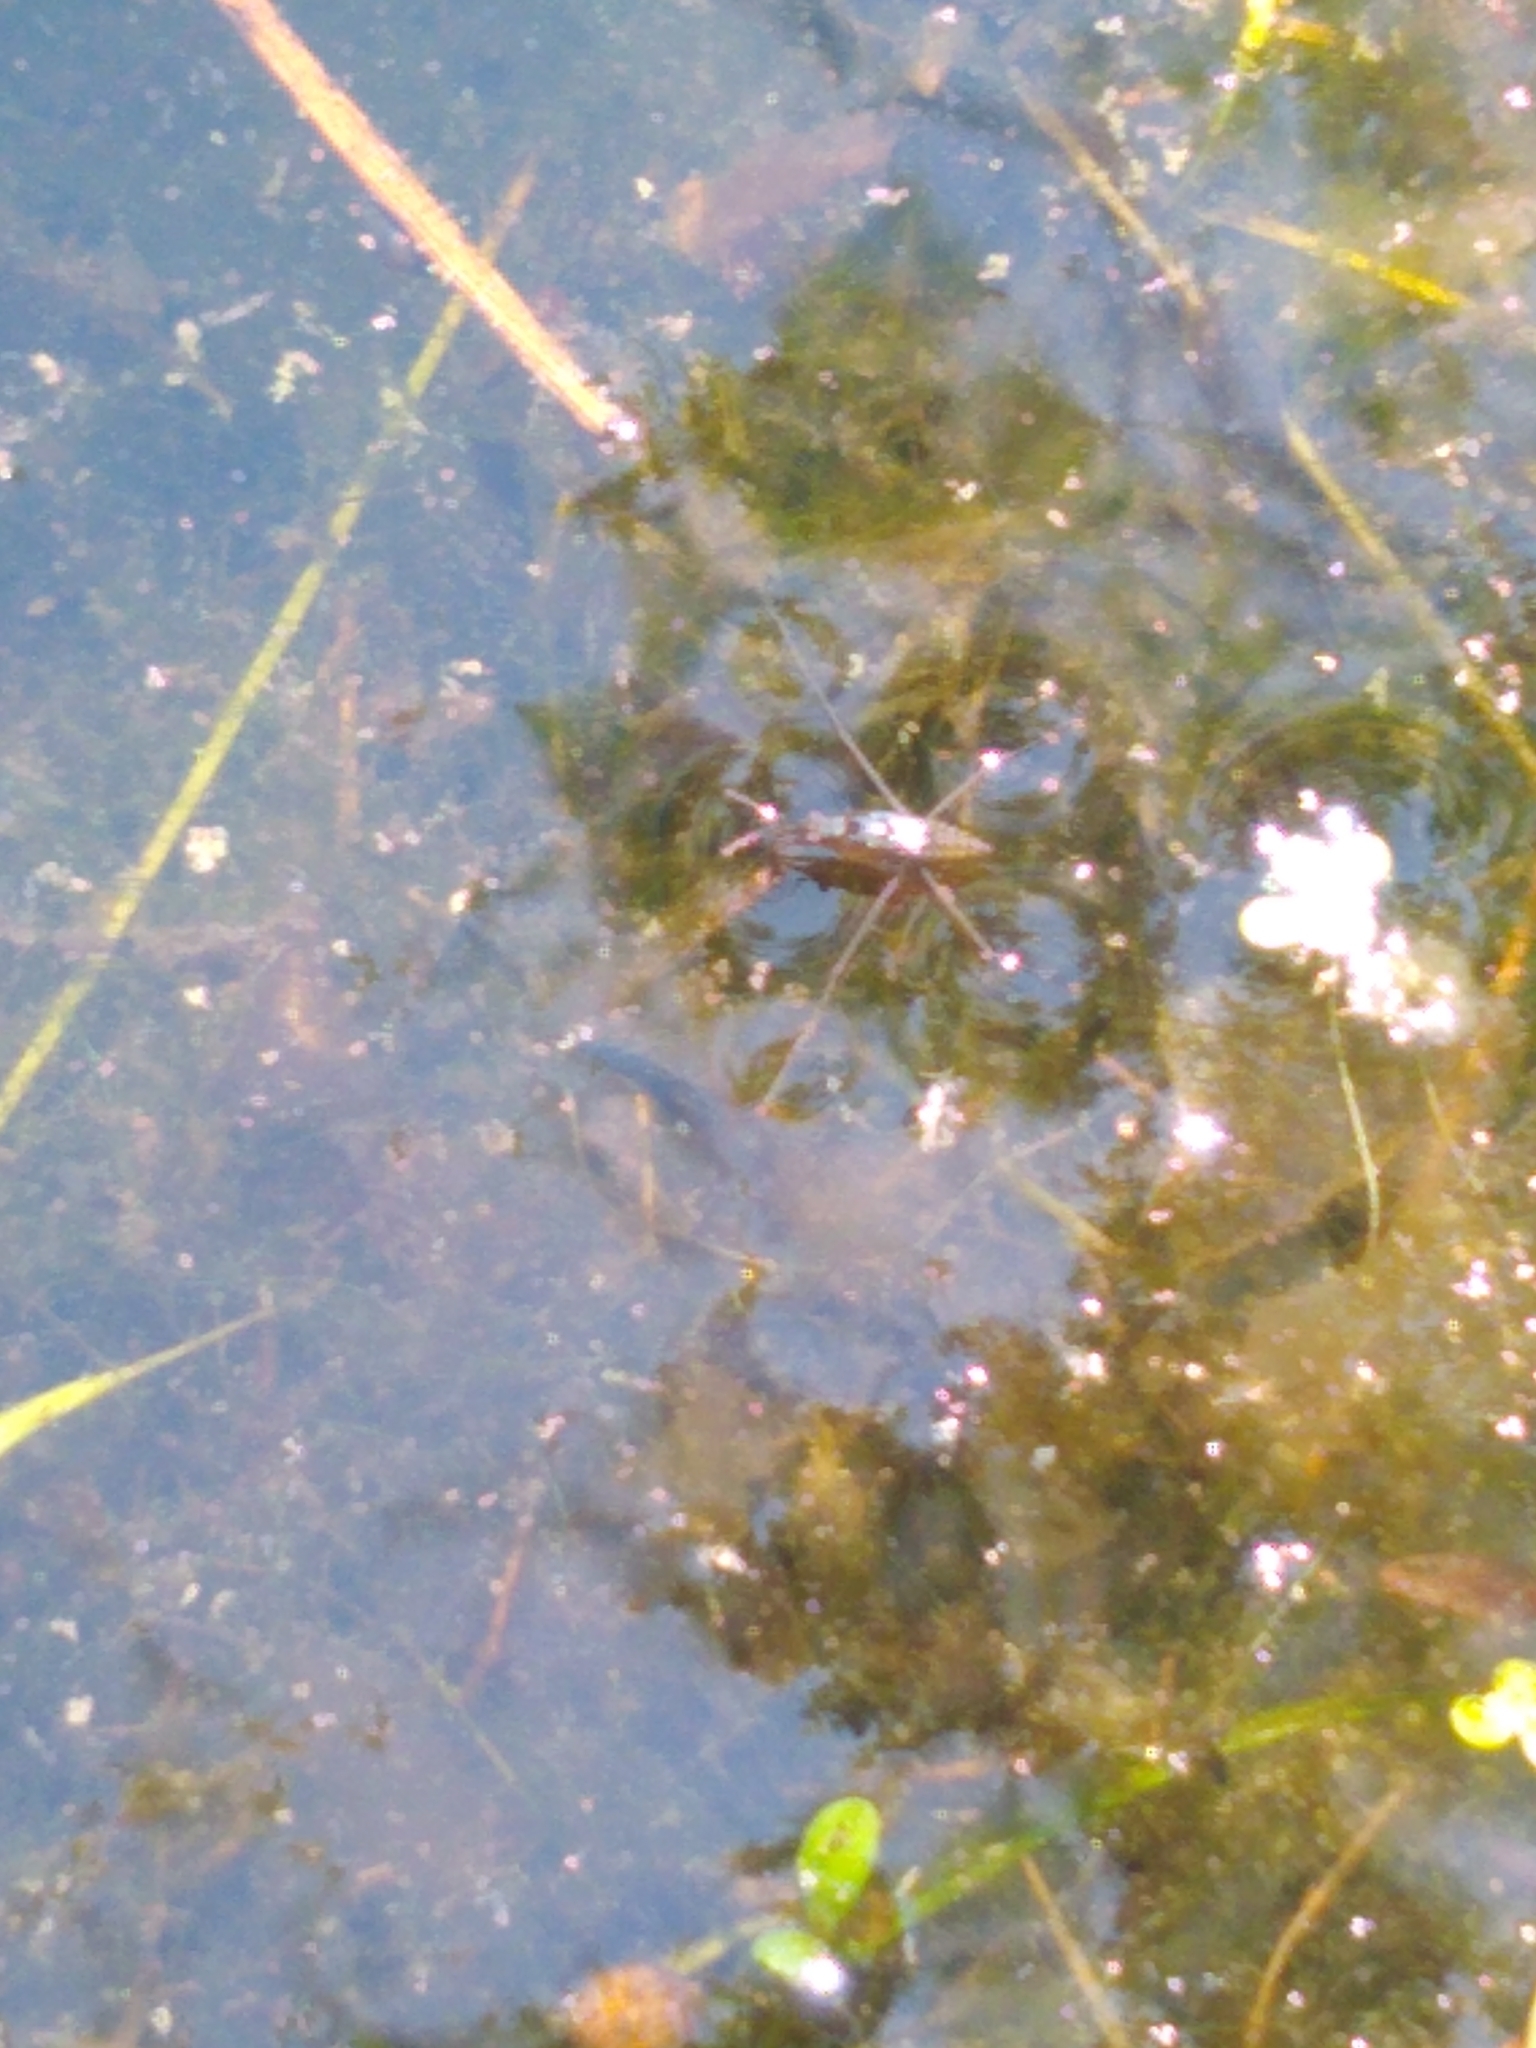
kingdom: Animalia
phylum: Arthropoda
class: Insecta
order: Hemiptera
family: Gerridae
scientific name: Gerridae
